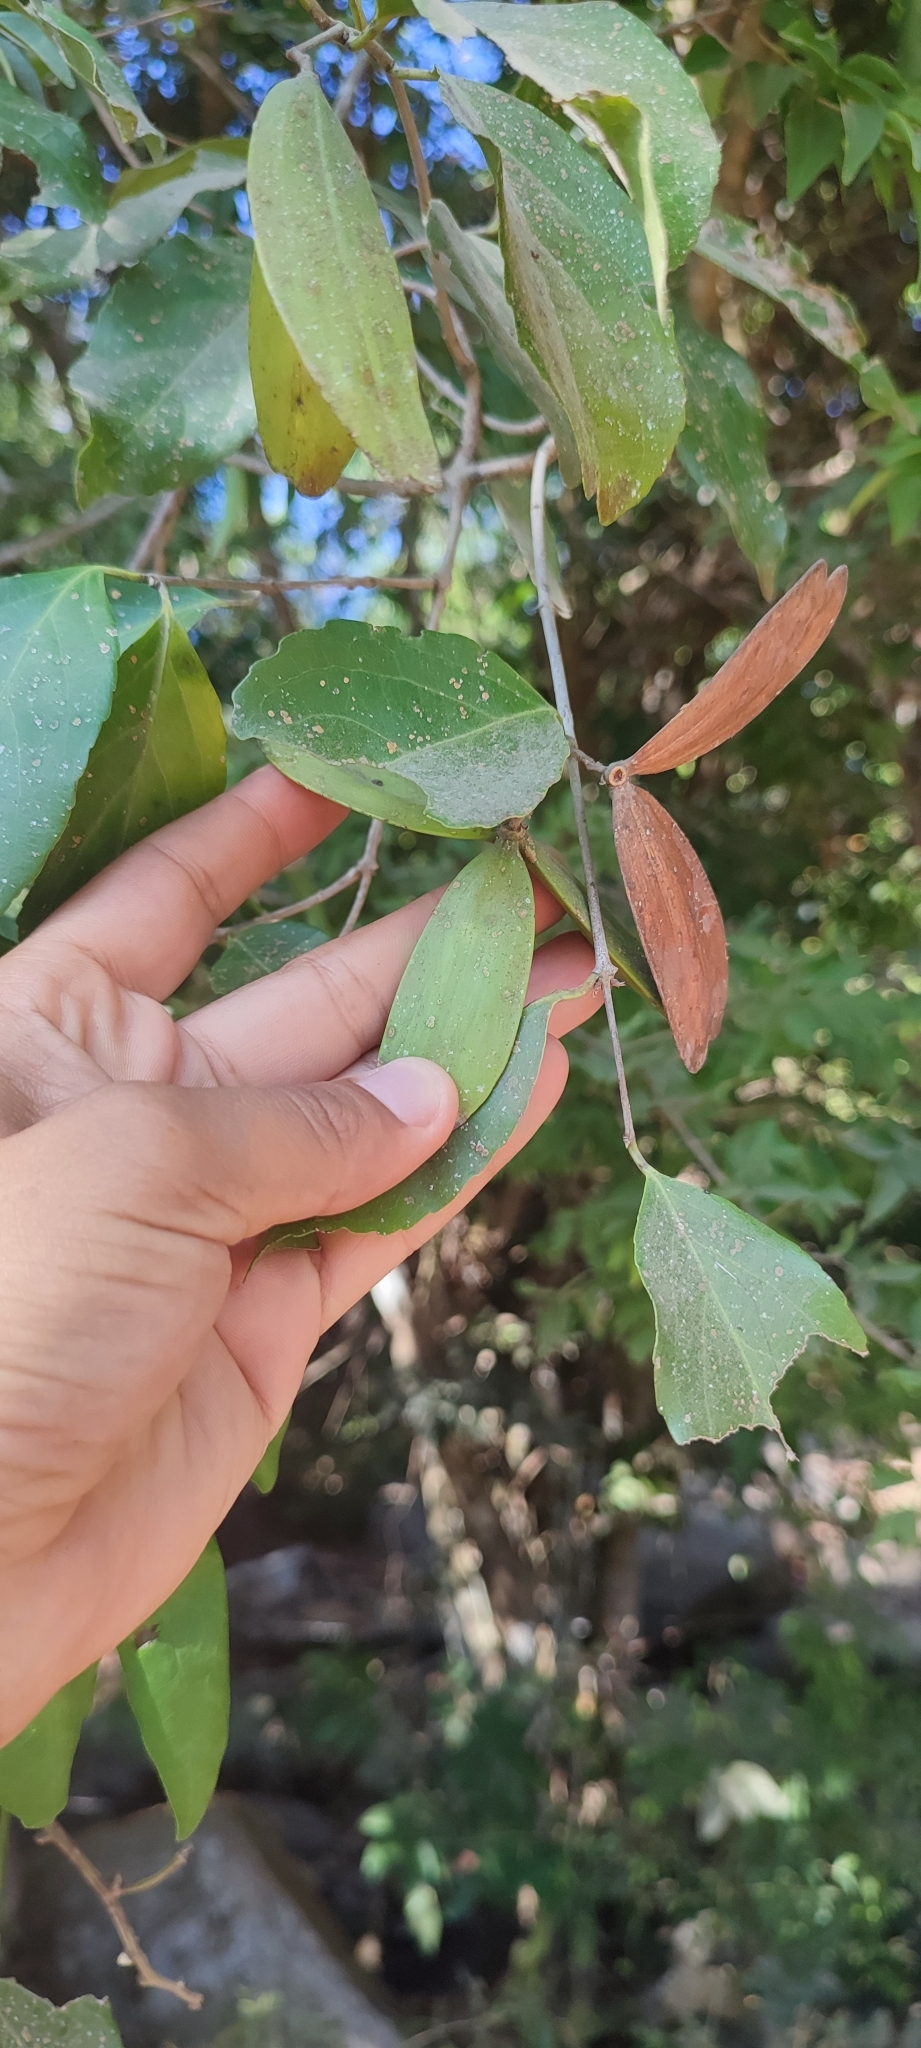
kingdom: Plantae
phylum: Tracheophyta
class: Magnoliopsida
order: Celastrales
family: Celastraceae
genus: Semialarium
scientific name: Semialarium mexicanum
